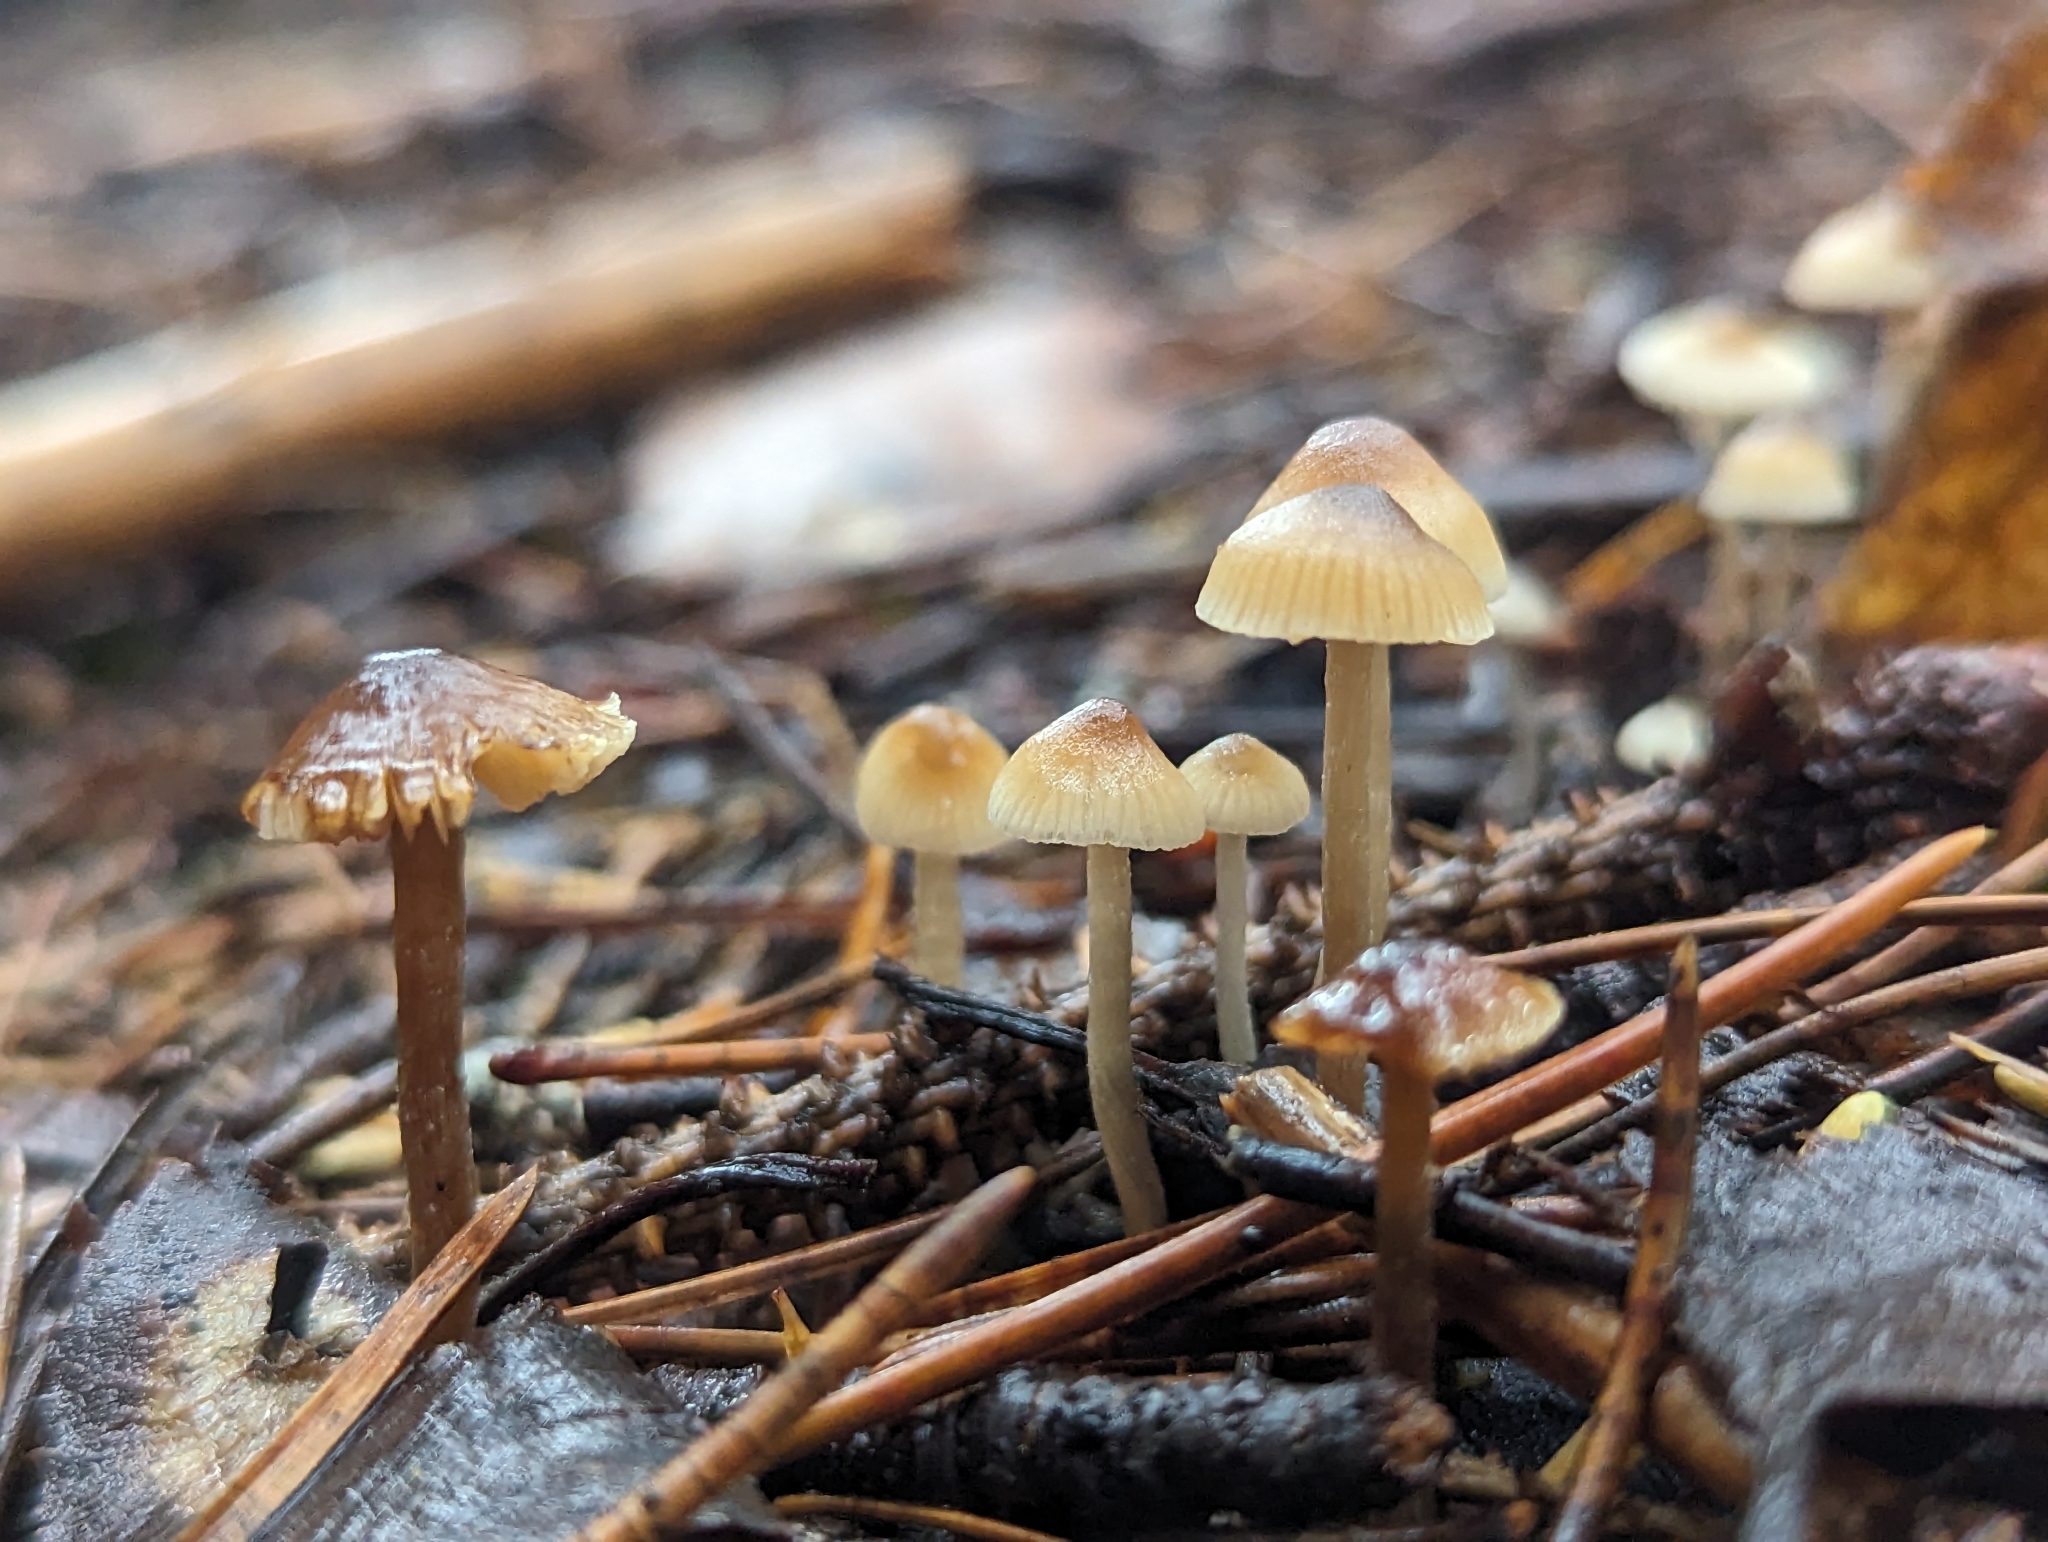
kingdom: Fungi
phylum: Basidiomycota
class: Agaricomycetes
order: Agaricales
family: Lyophyllaceae
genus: Sagaranella
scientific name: Sagaranella tylicolor
